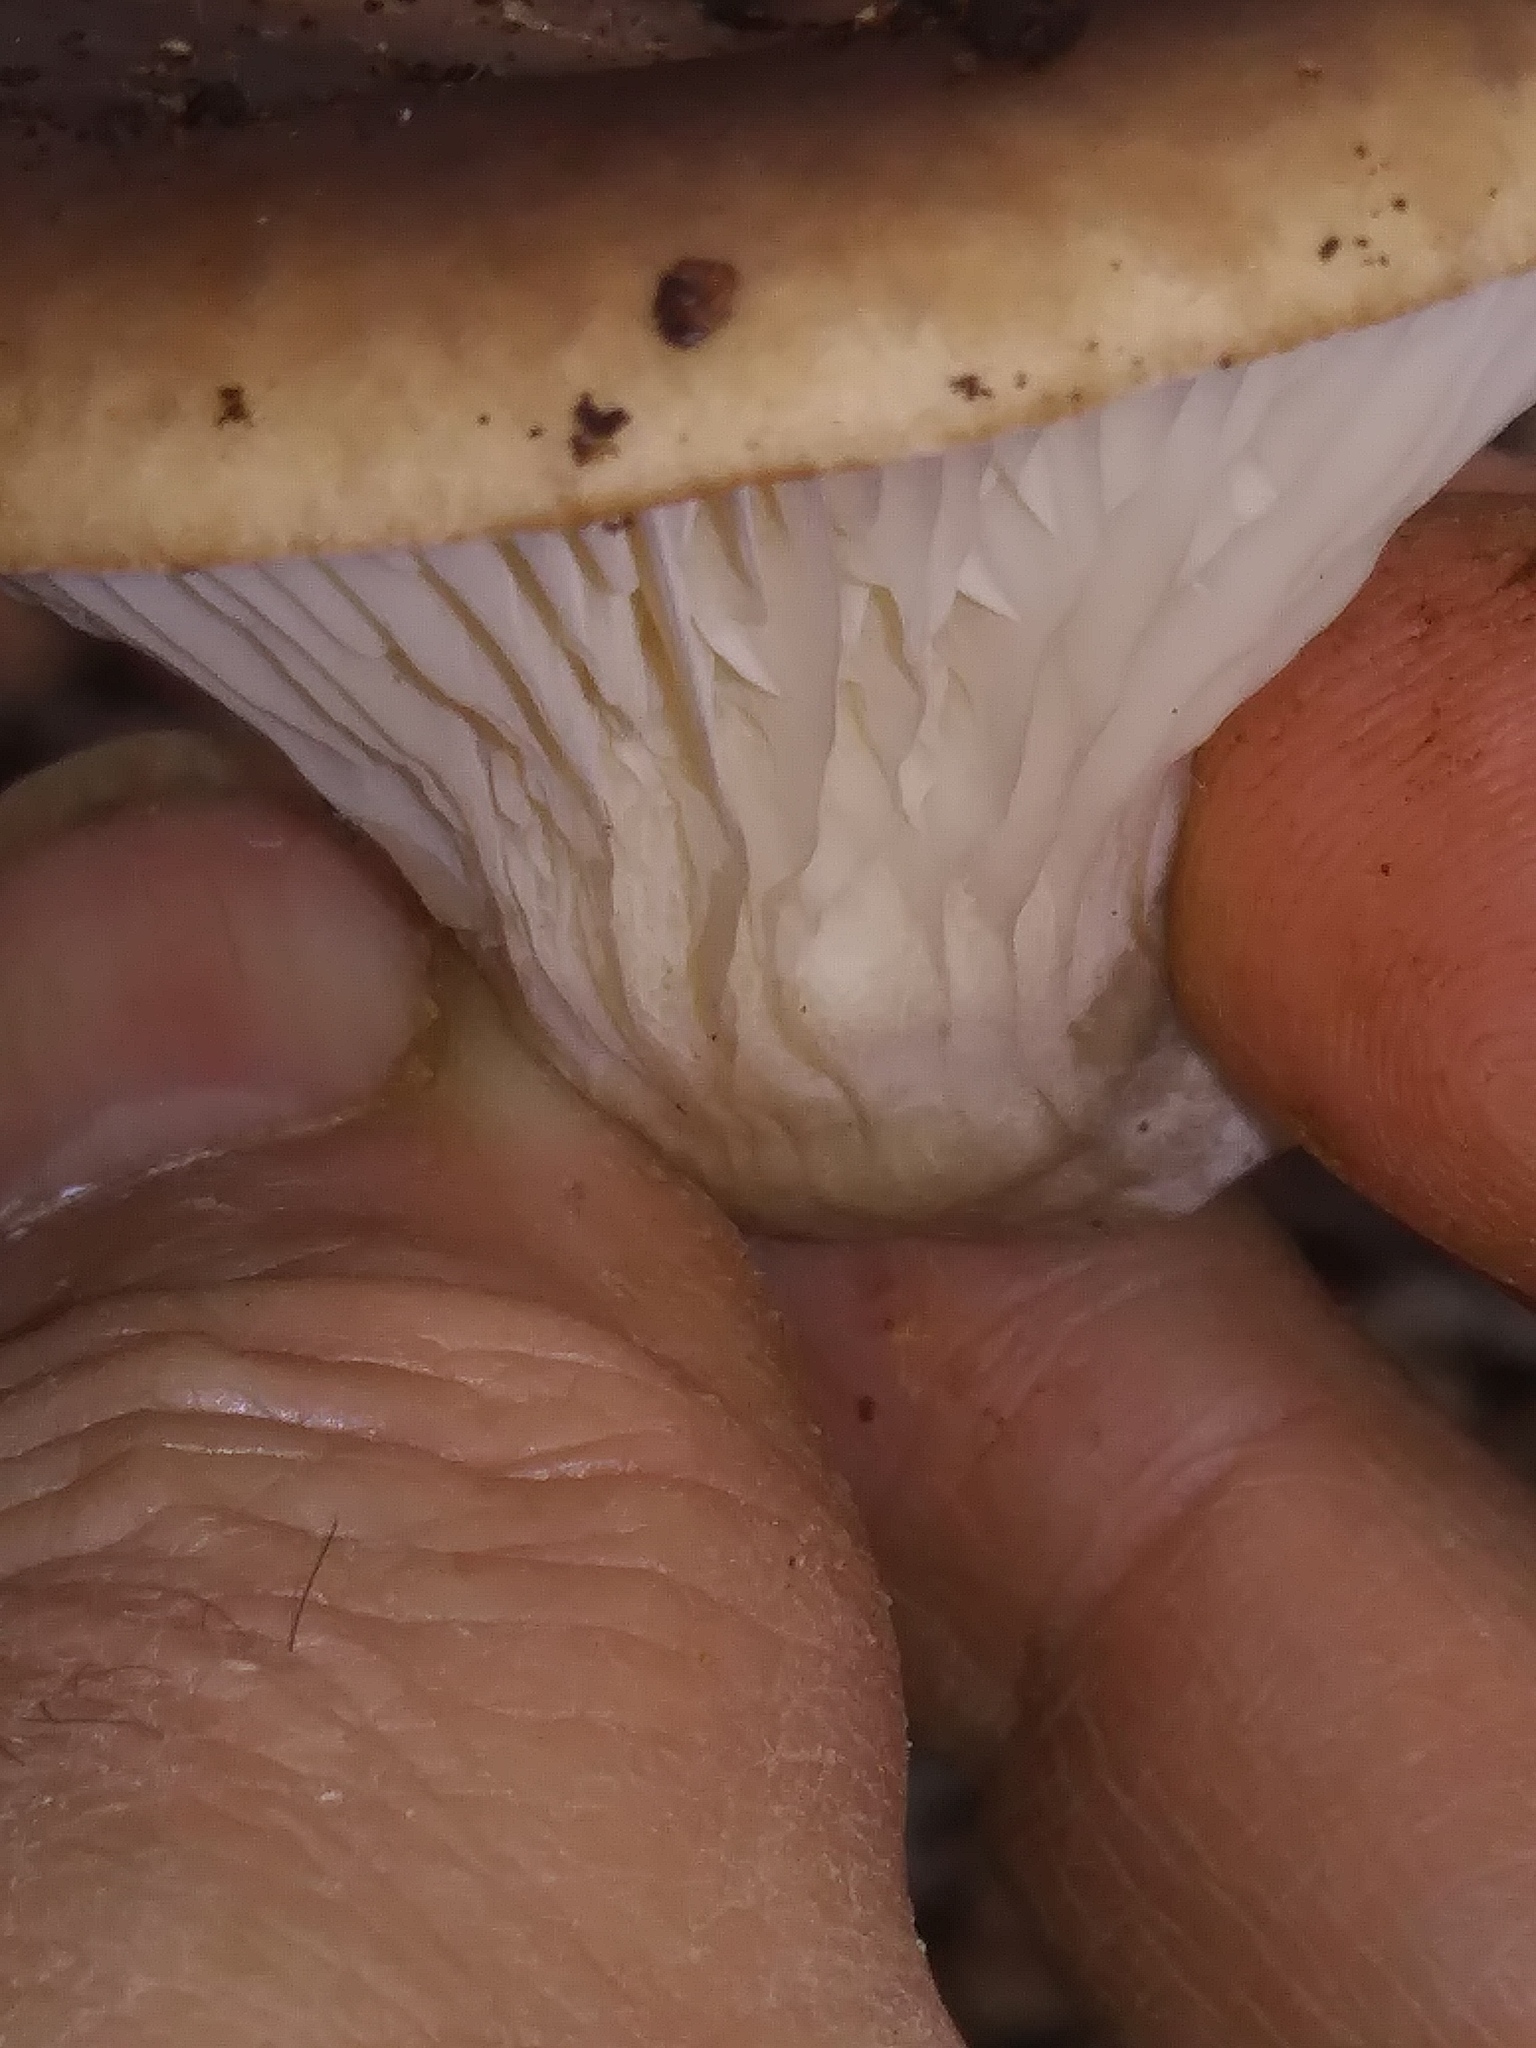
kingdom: Fungi
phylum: Basidiomycota
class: Agaricomycetes
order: Agaricales
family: Pleurotaceae
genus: Pleurotus
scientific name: Pleurotus ostreatus
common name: Oyster mushroom
